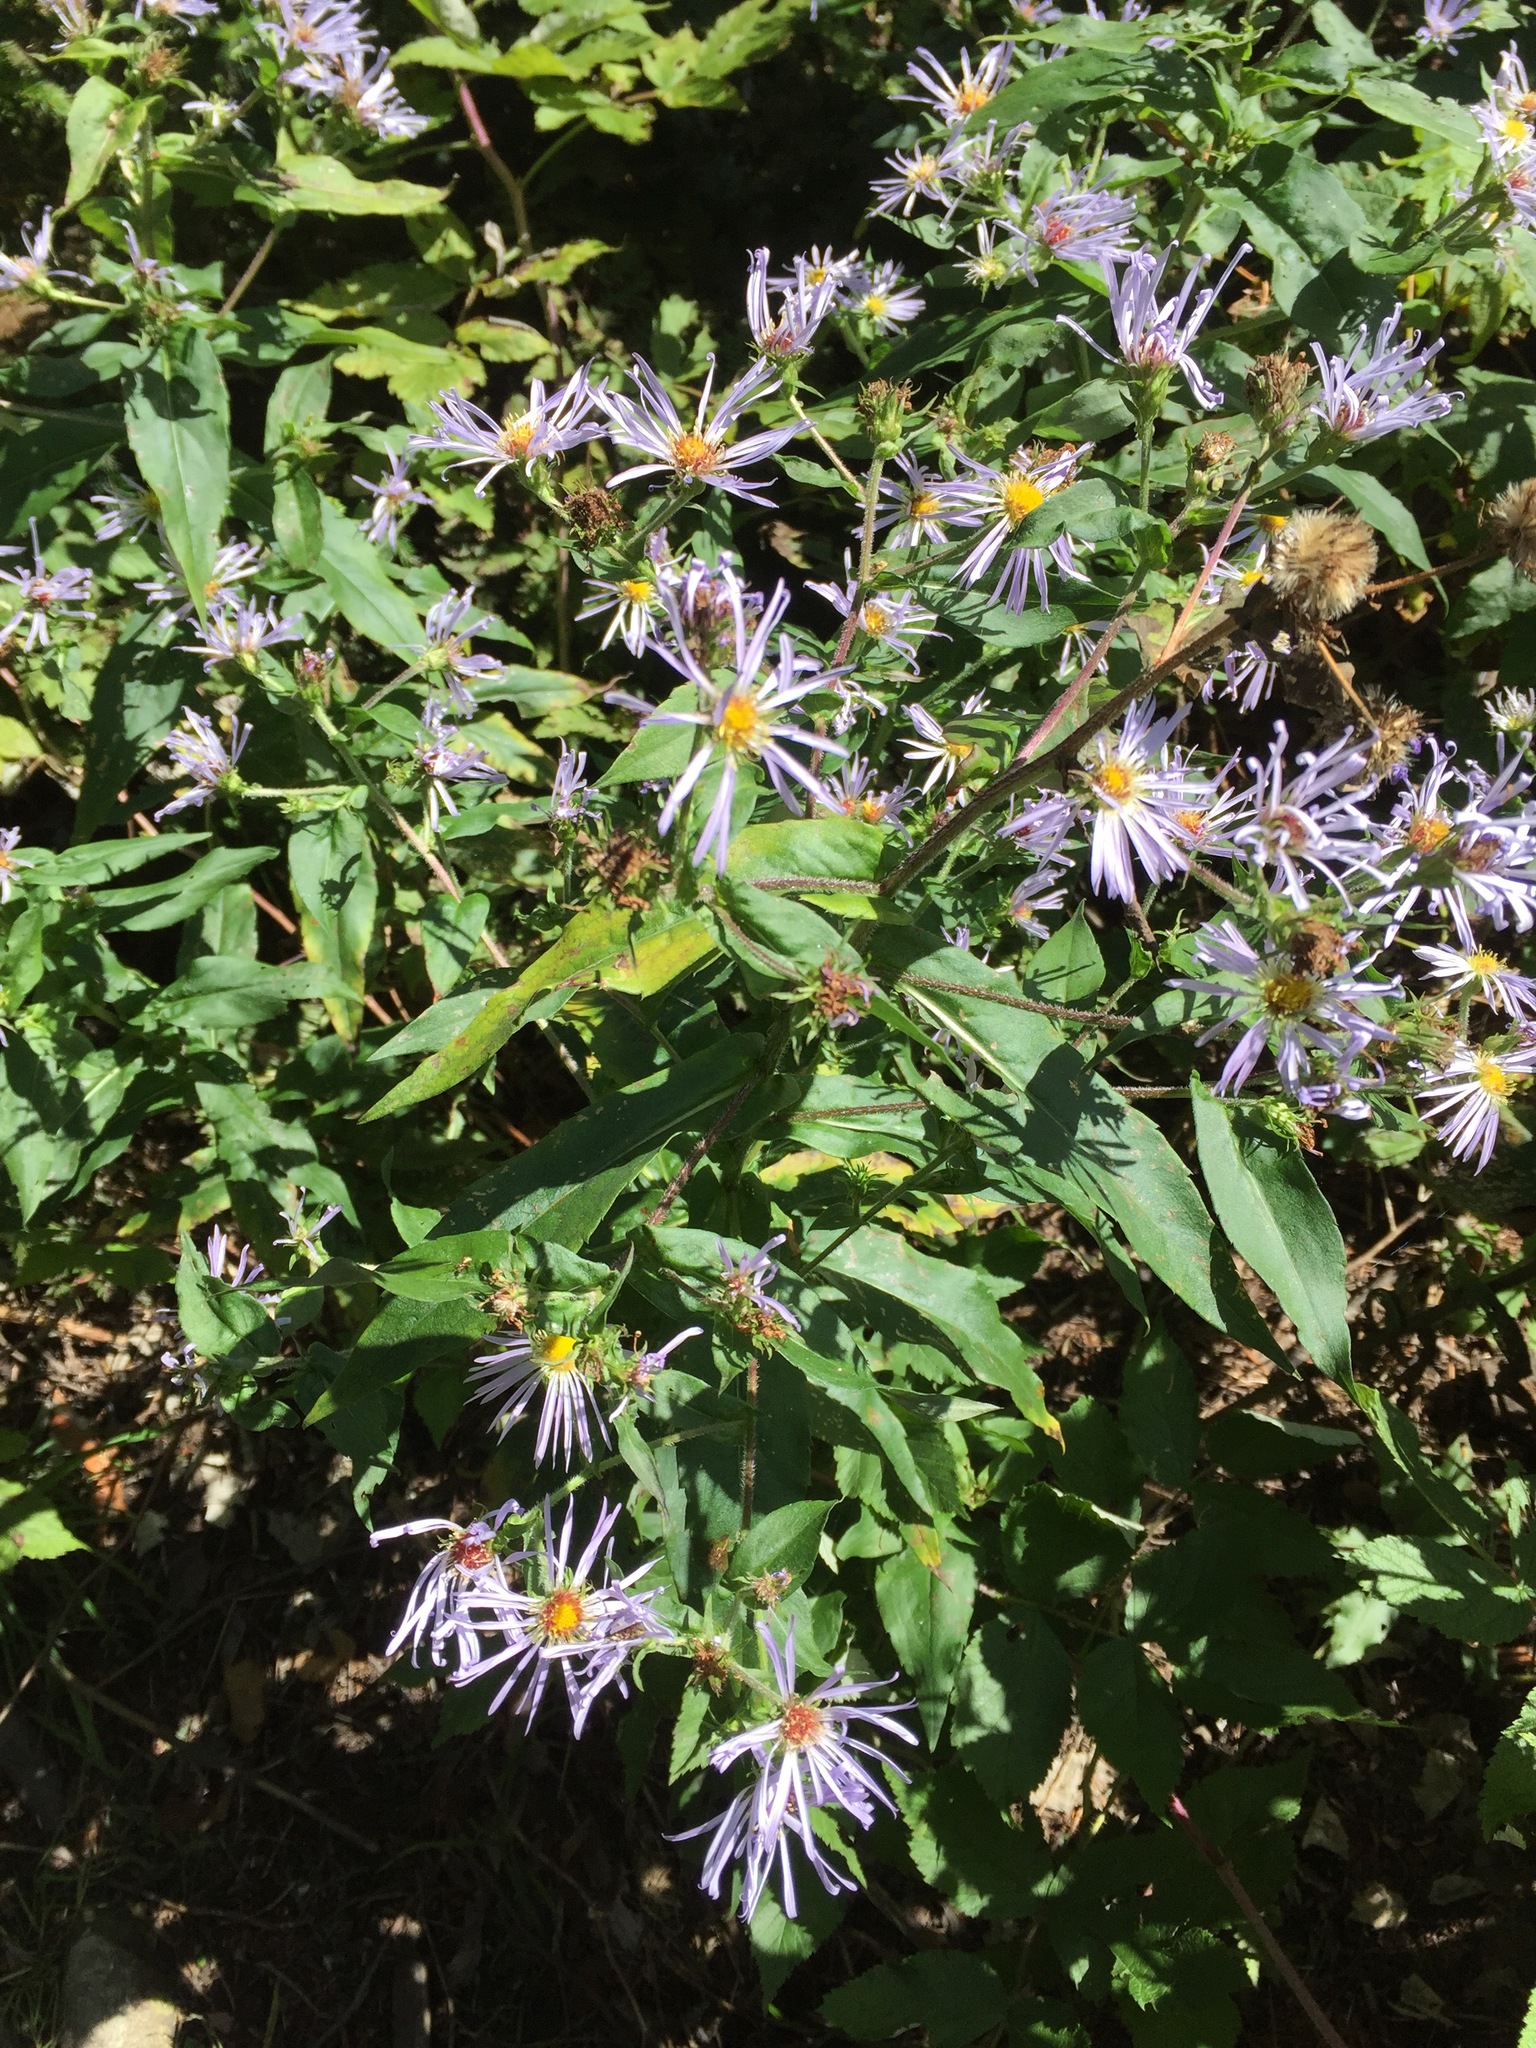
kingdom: Plantae
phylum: Tracheophyta
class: Magnoliopsida
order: Asterales
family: Asteraceae
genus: Symphyotrichum
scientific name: Symphyotrichum puniceum
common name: Bog aster
